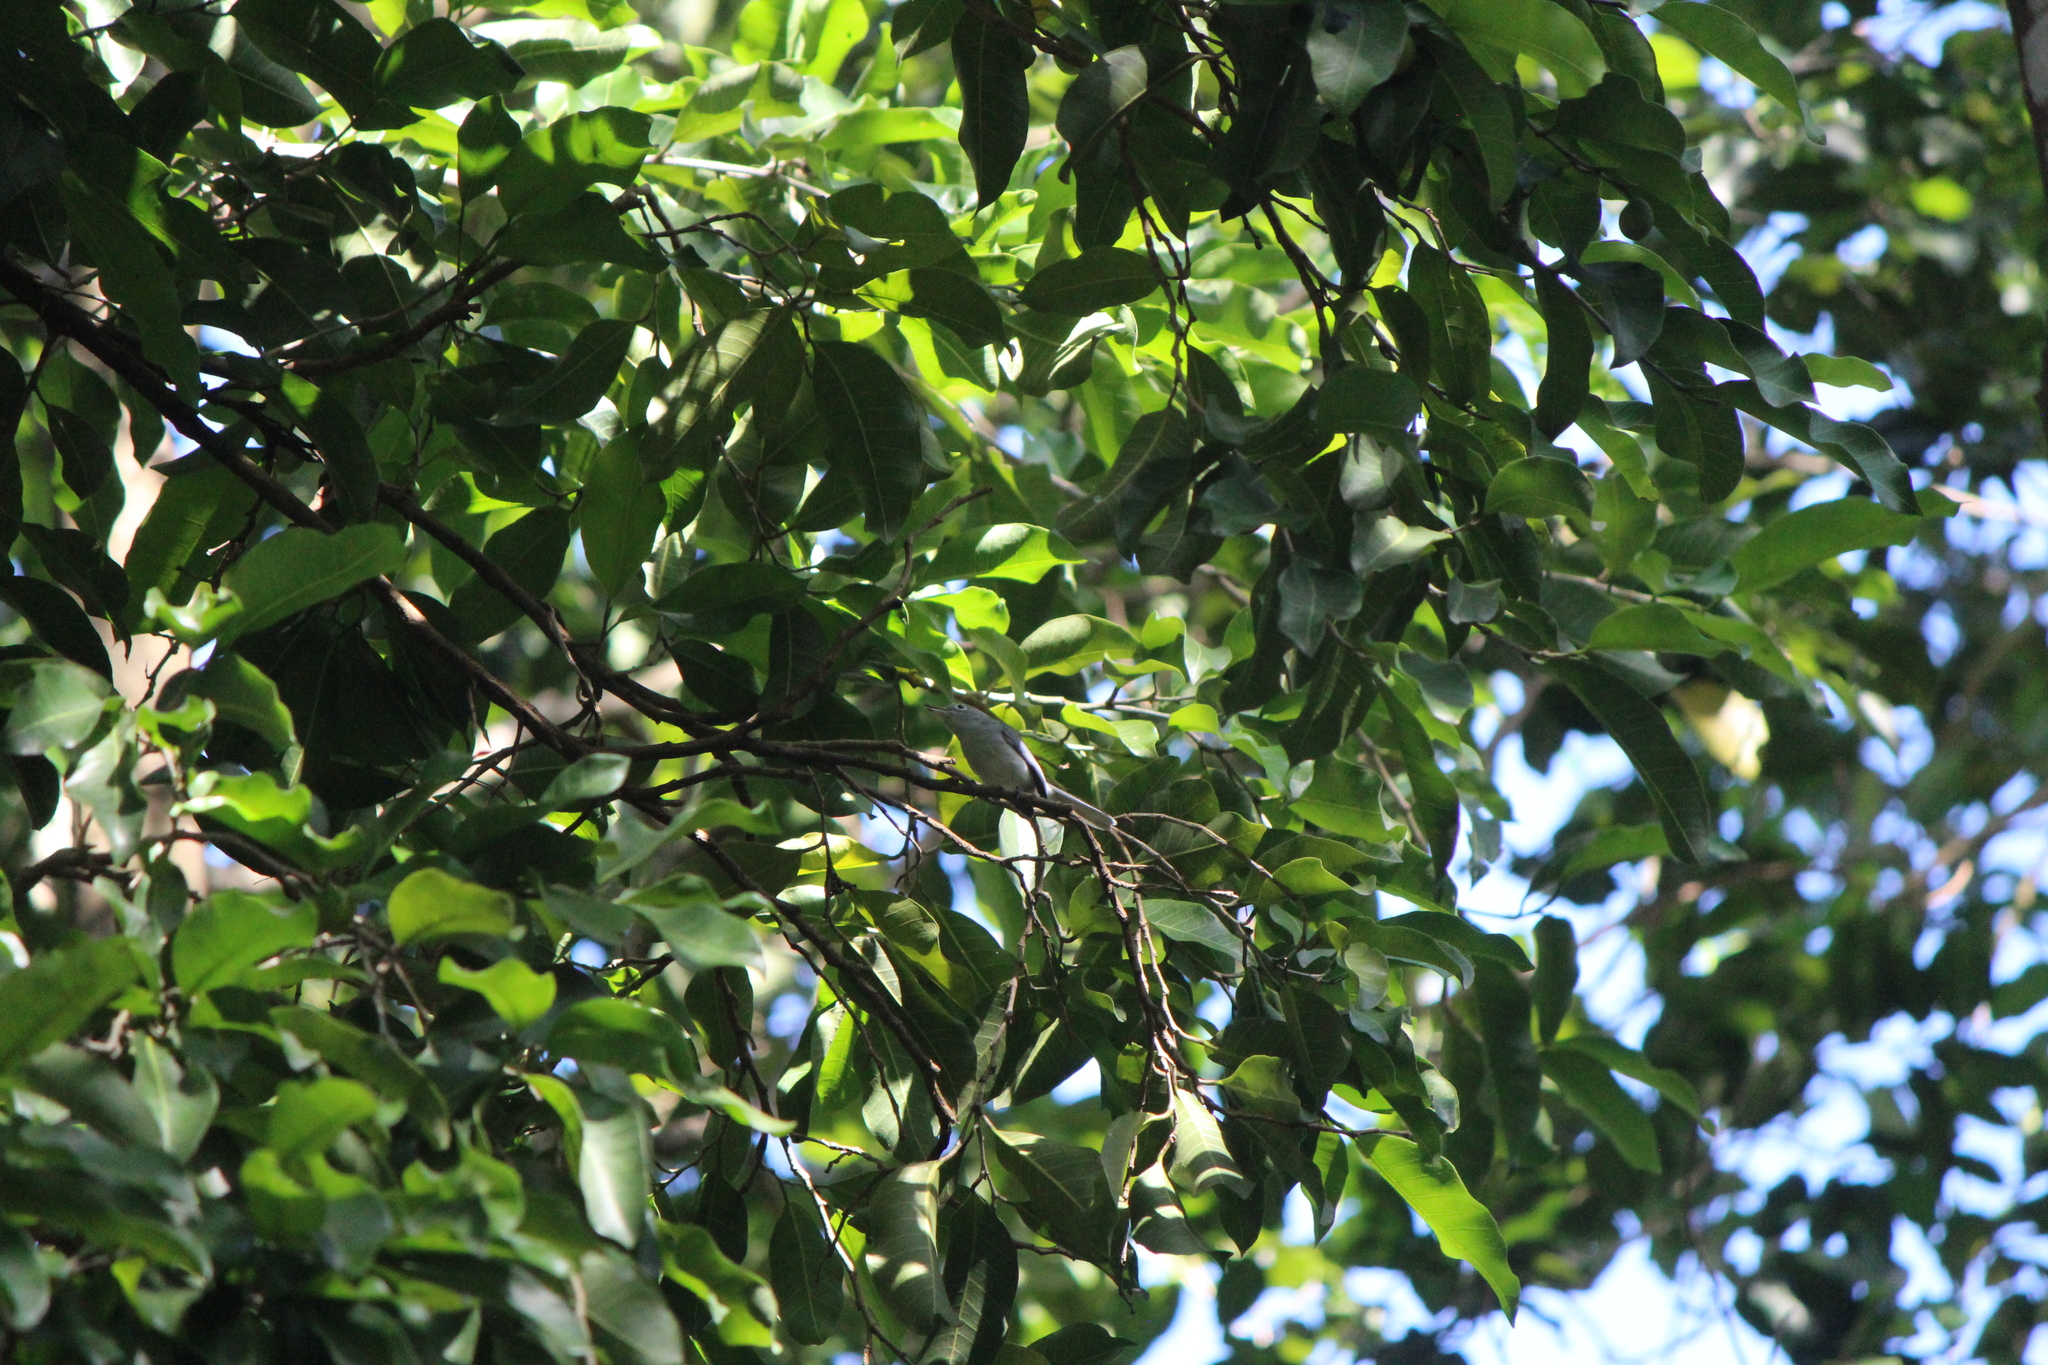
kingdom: Animalia
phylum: Chordata
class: Aves
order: Passeriformes
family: Polioptilidae
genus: Polioptila
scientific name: Polioptila caerulea
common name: Blue-gray gnatcatcher
